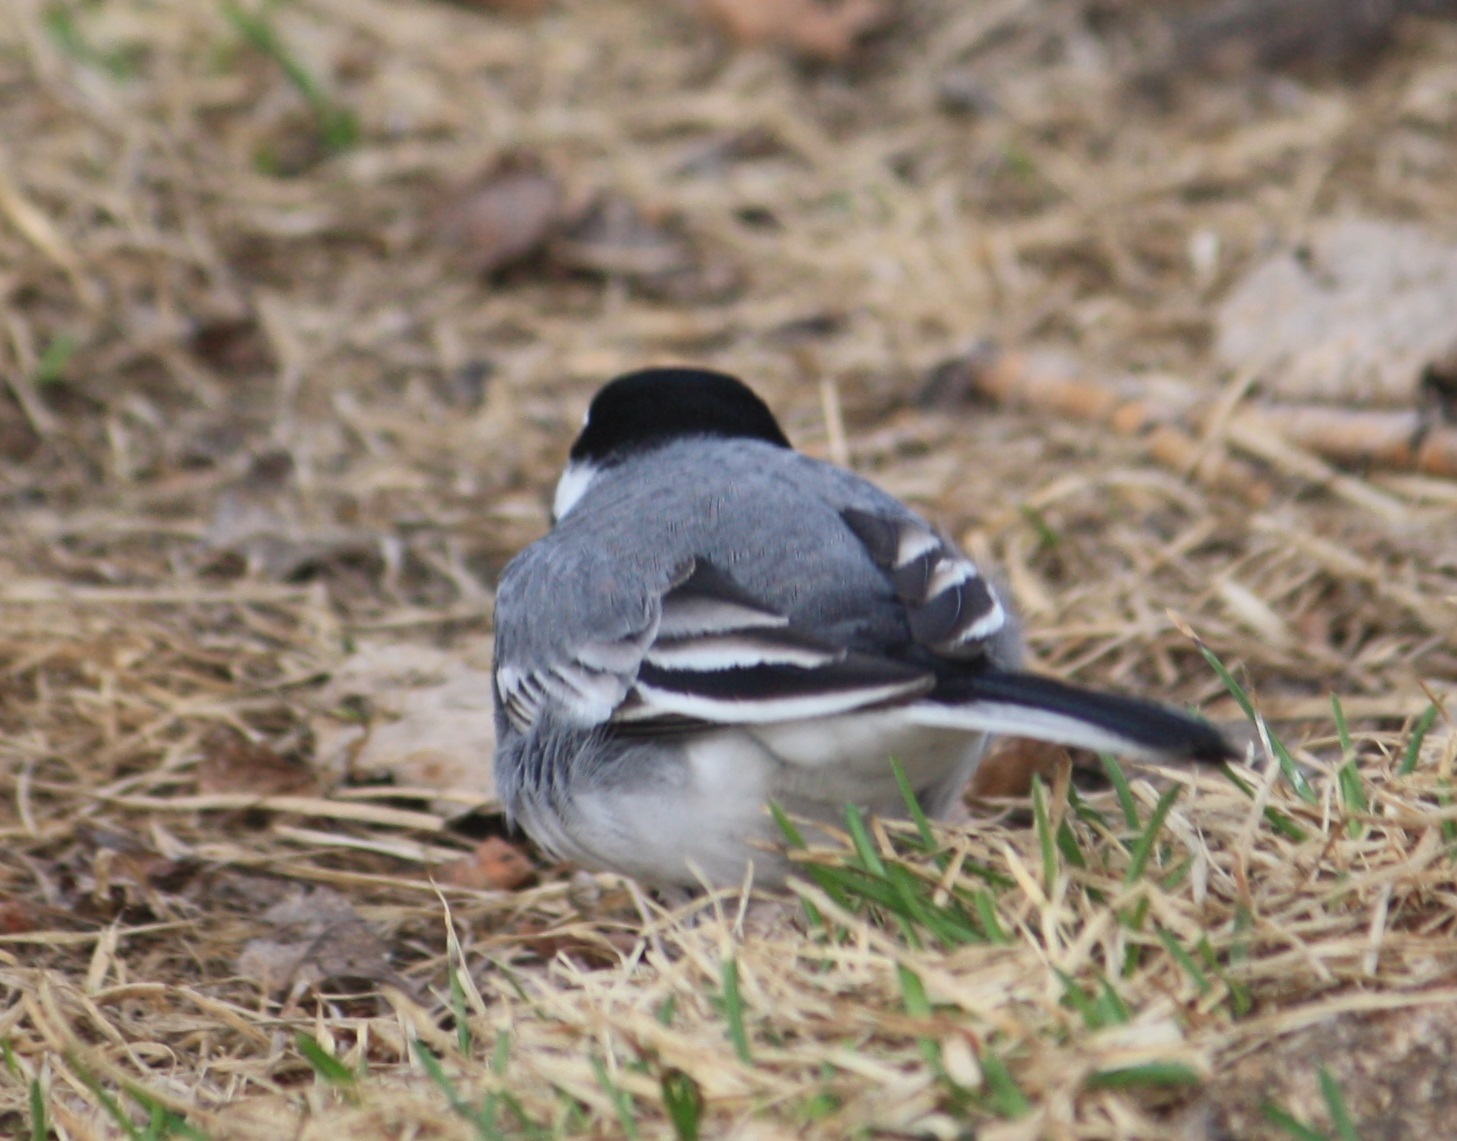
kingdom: Animalia
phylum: Chordata
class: Aves
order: Passeriformes
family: Motacillidae
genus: Motacilla
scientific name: Motacilla alba
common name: White wagtail
